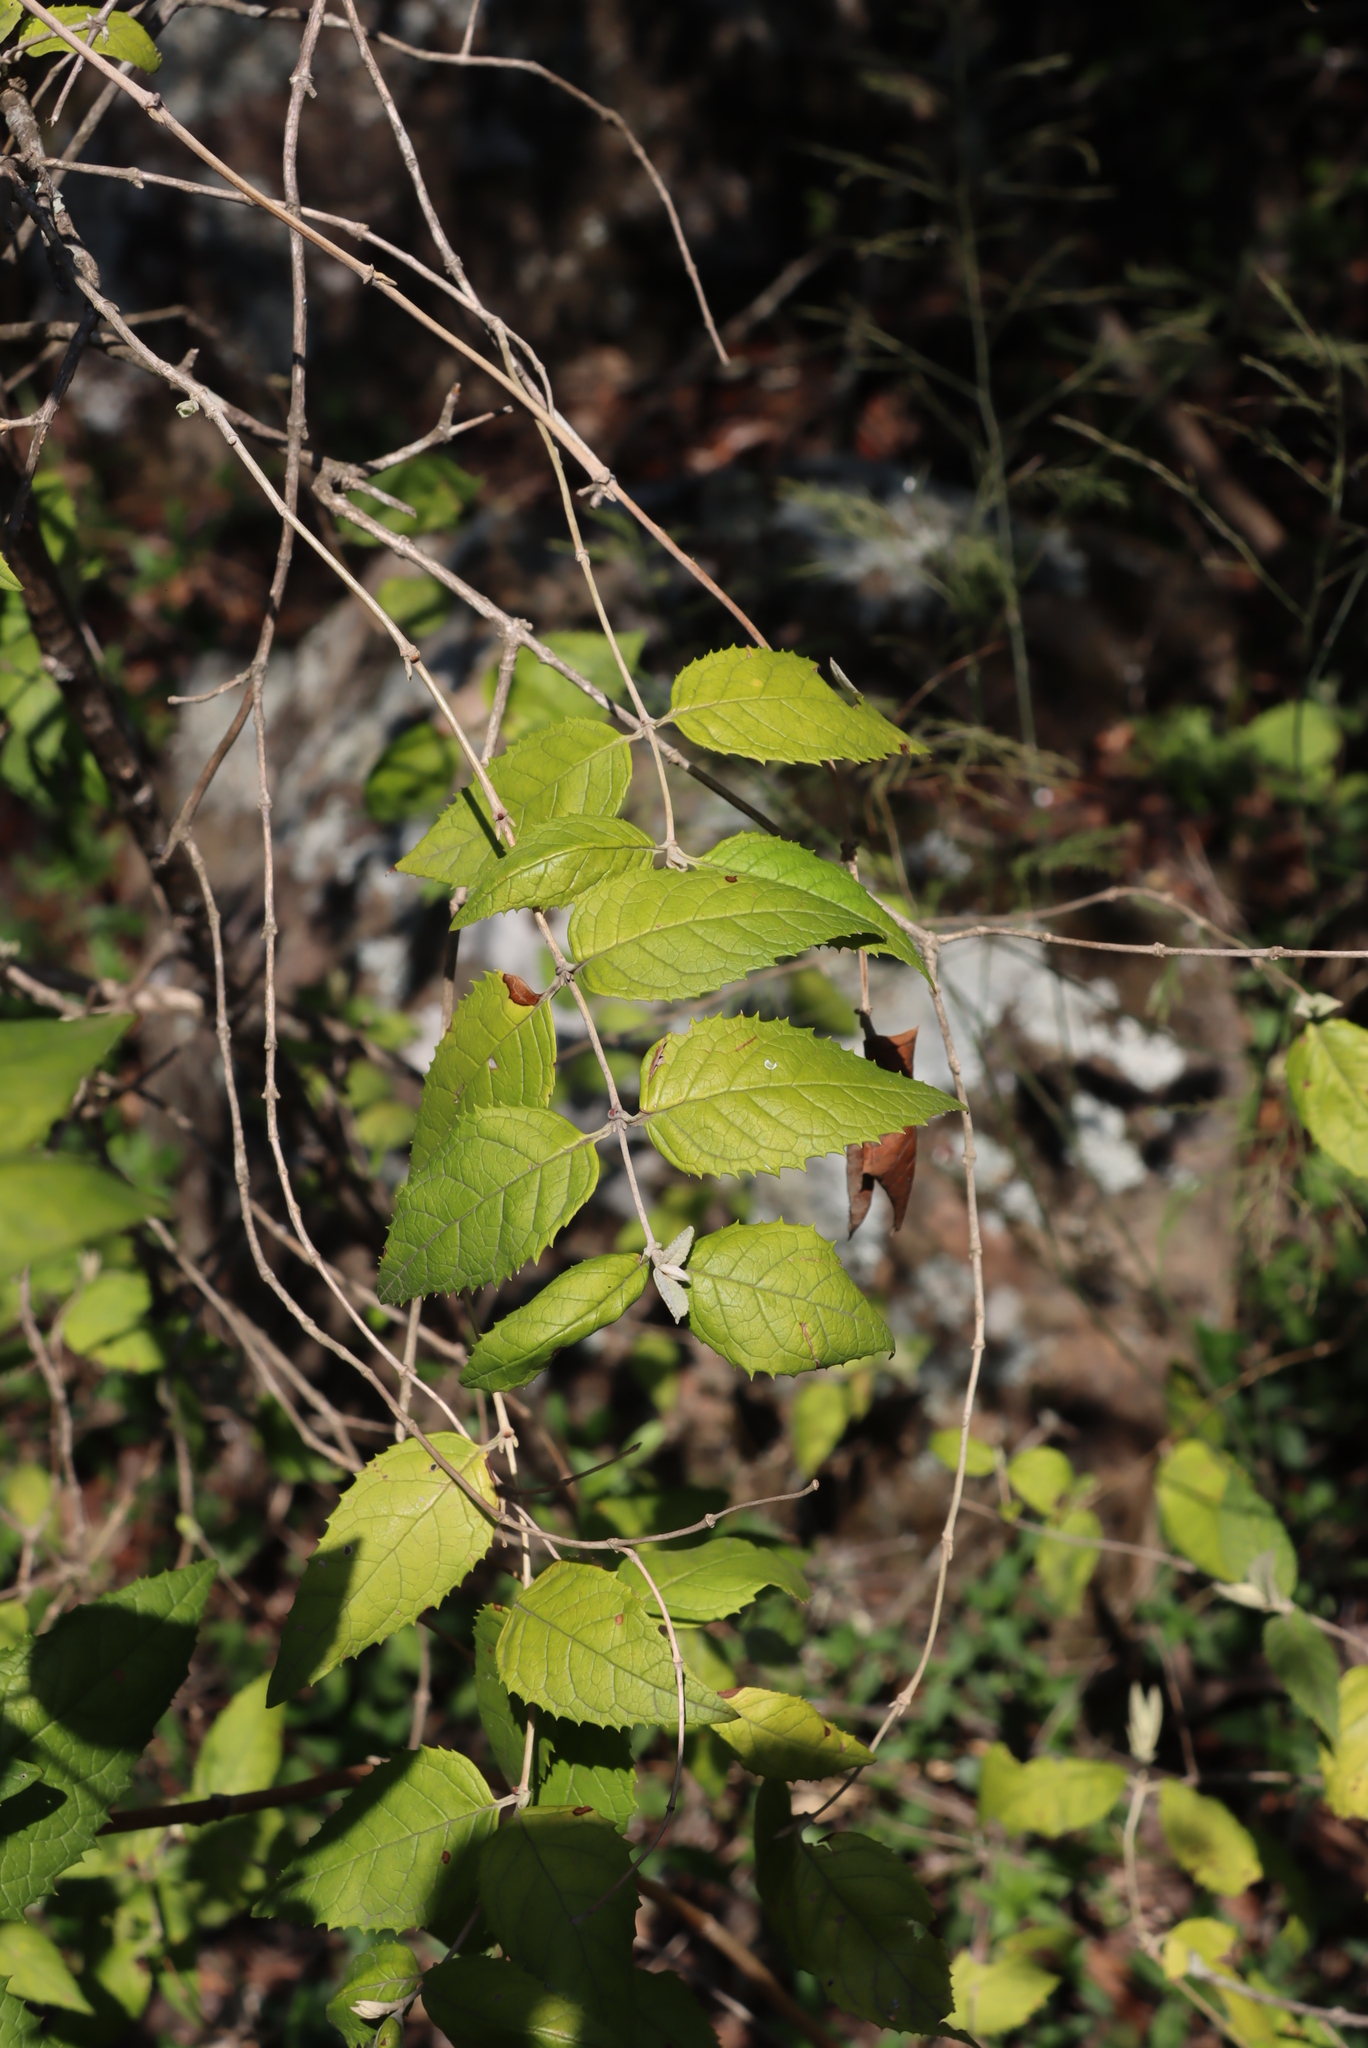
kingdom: Plantae
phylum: Tracheophyta
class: Magnoliopsida
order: Lamiales
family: Scrophulariaceae
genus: Buddleja
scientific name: Buddleja auriculata
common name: Weeping sagewood
